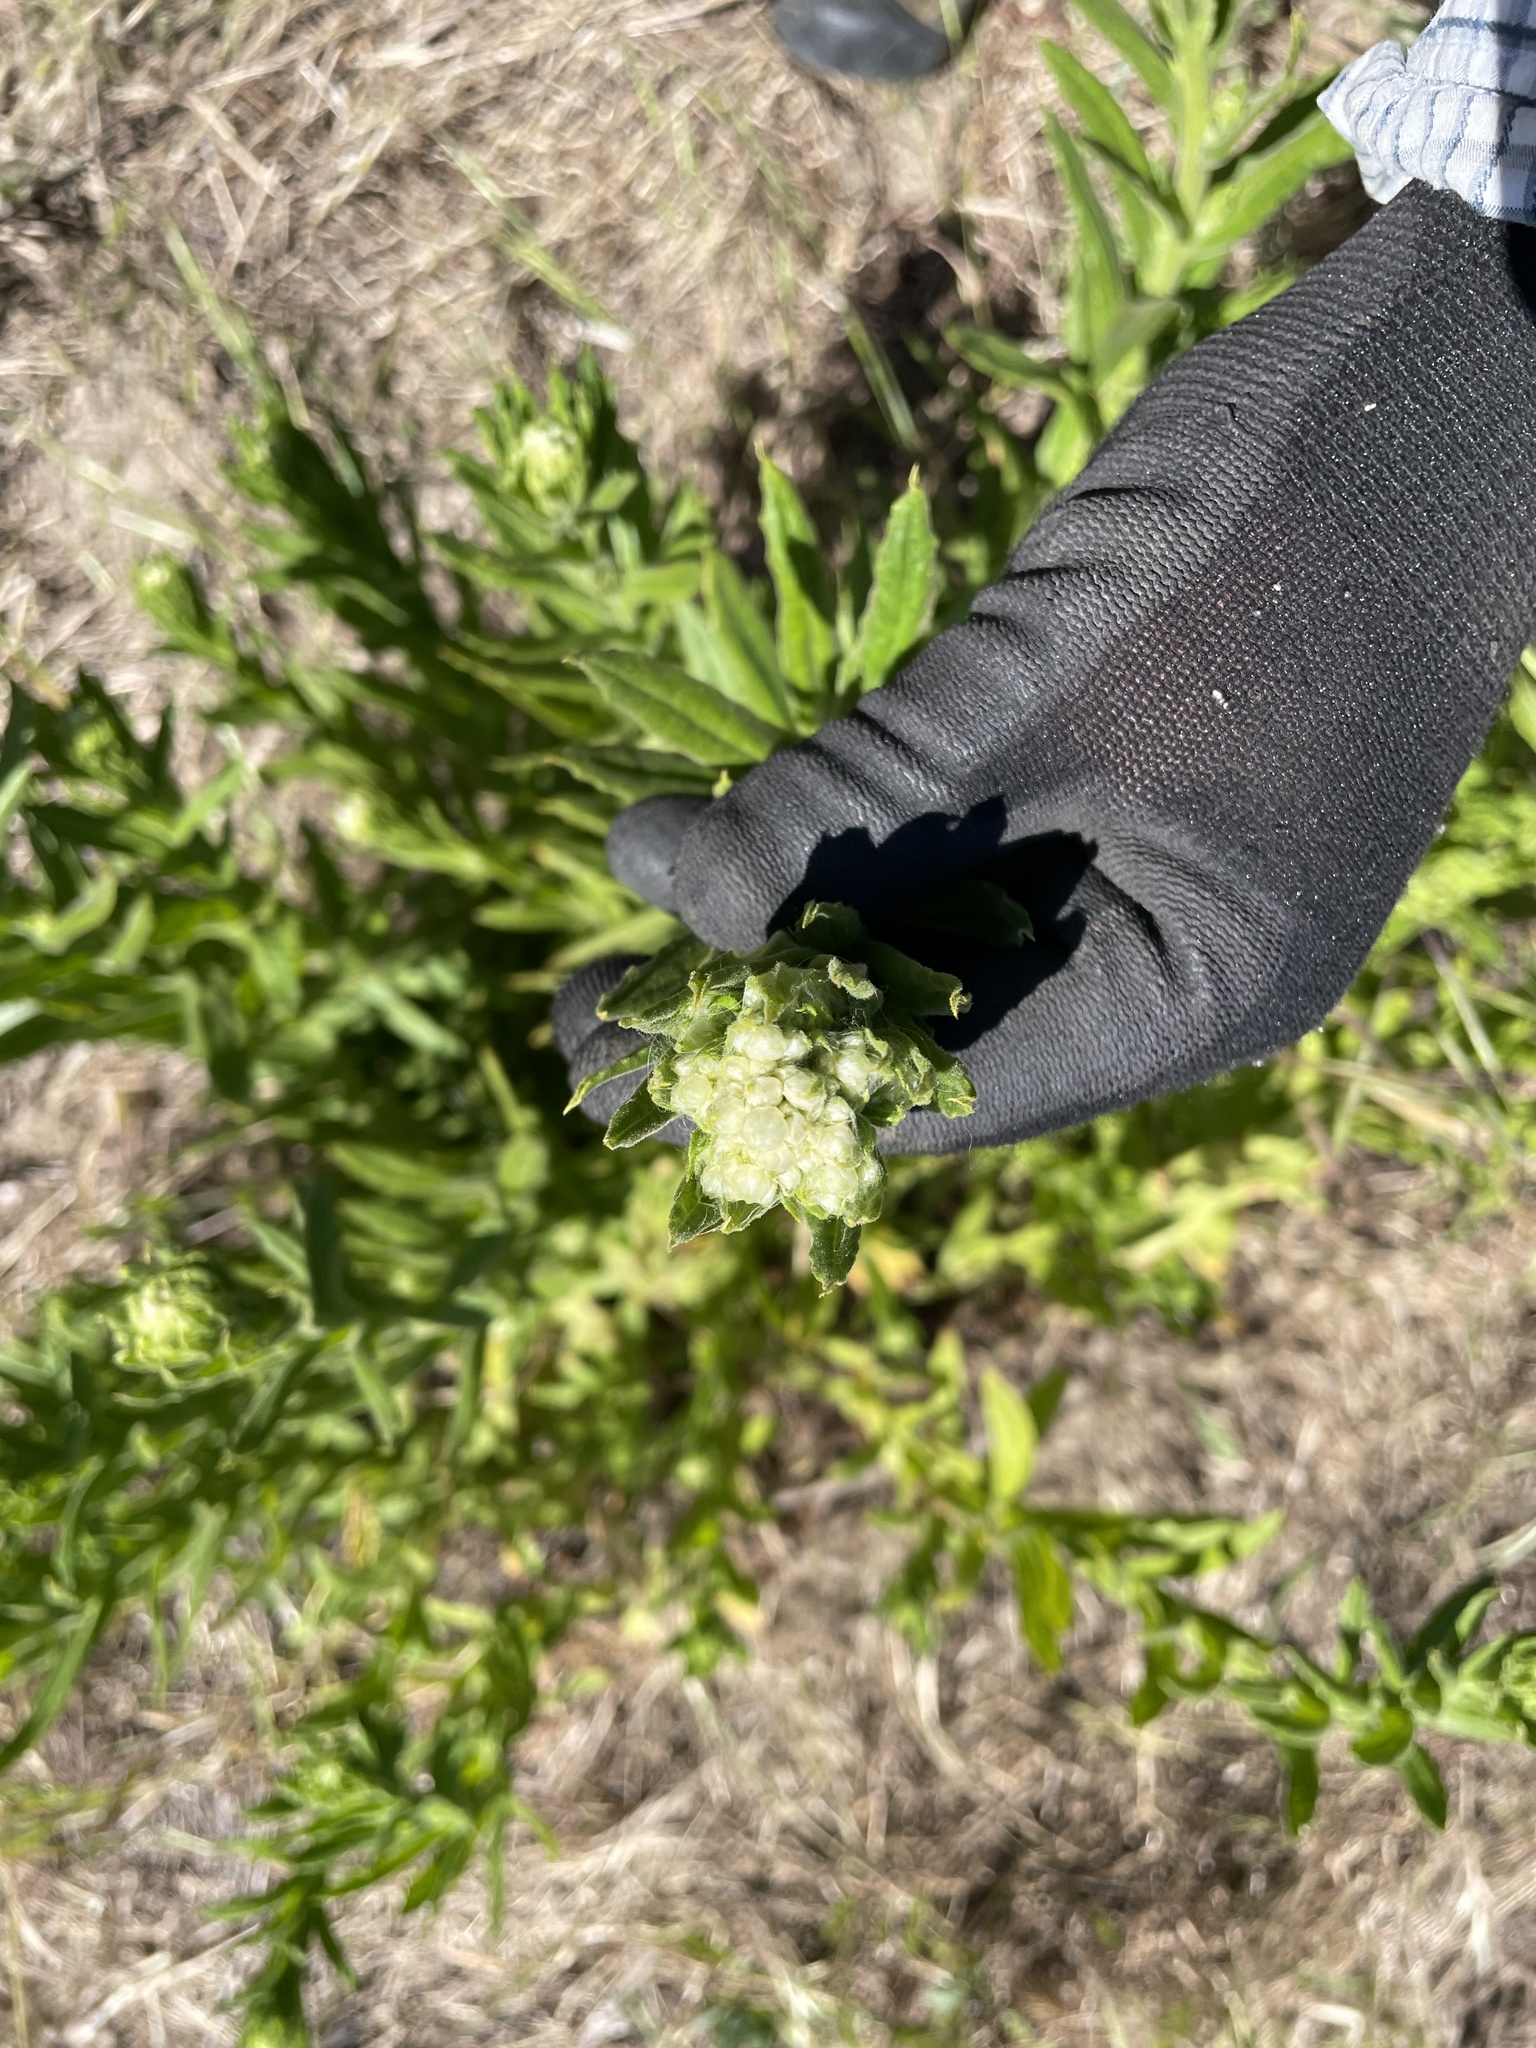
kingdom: Plantae
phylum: Tracheophyta
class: Magnoliopsida
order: Asterales
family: Asteraceae
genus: Pseudognaphalium
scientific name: Pseudognaphalium californicum
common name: California rabbit-tobacco
